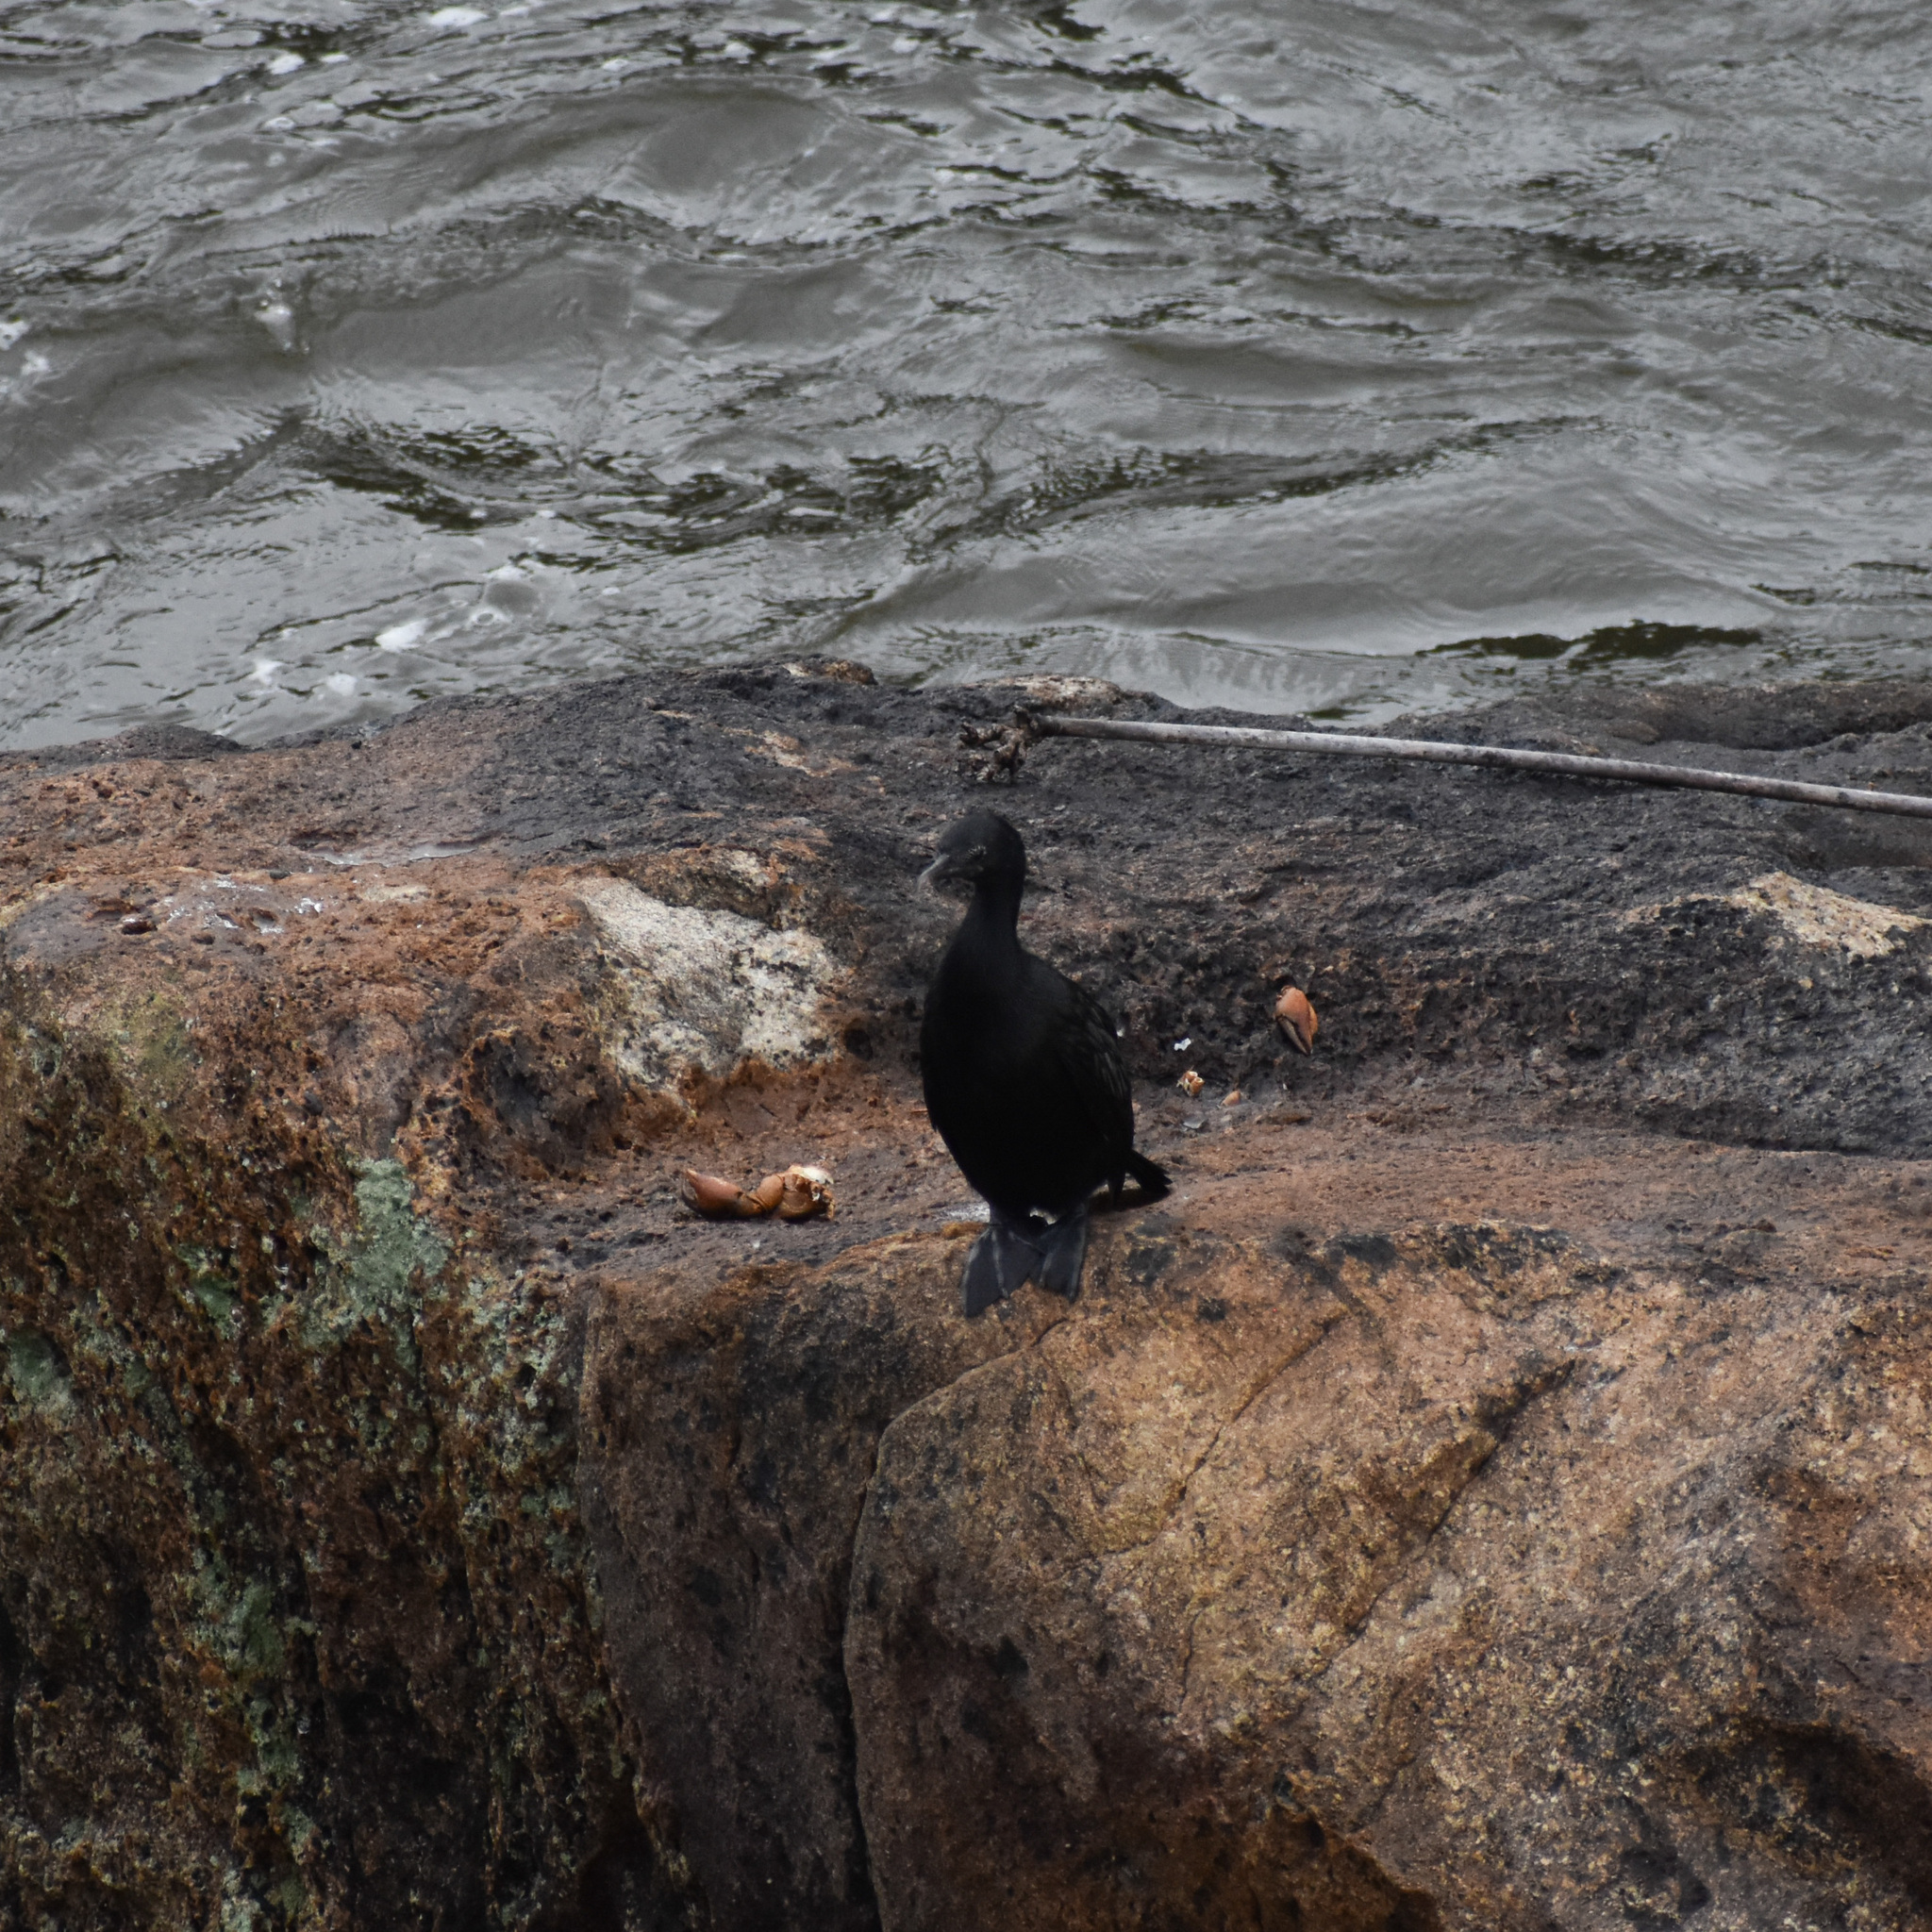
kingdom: Animalia
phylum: Chordata
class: Aves
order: Suliformes
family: Phalacrocoracidae
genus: Microcarbo
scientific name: Microcarbo niger
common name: Little cormorant
